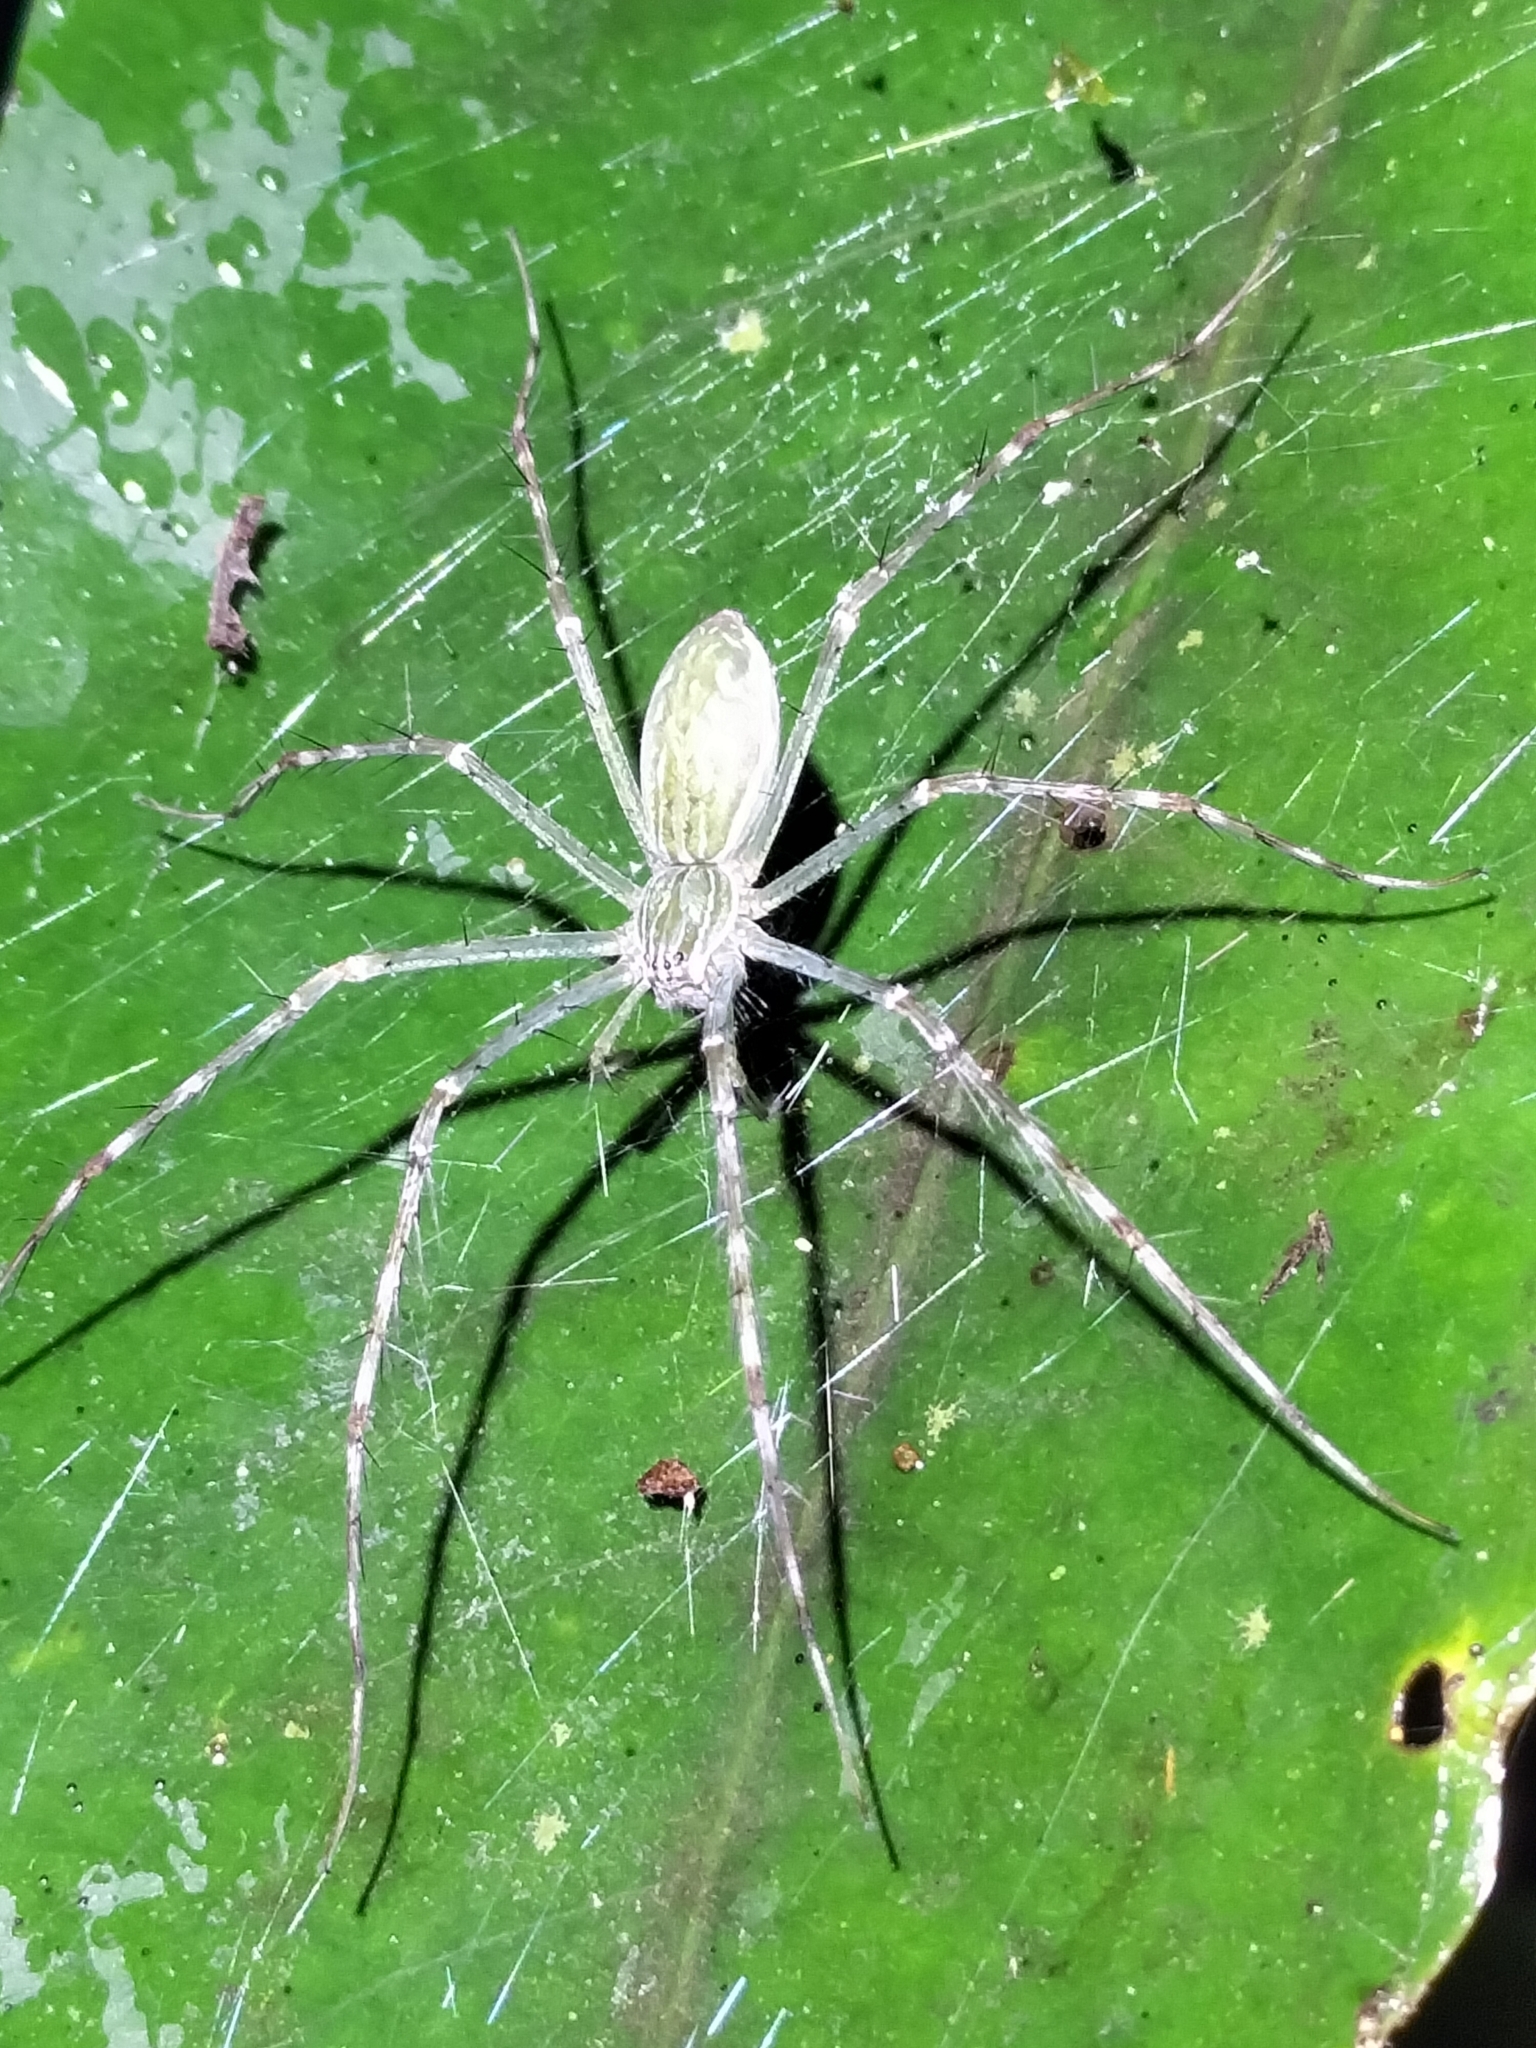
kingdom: Animalia
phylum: Arthropoda
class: Arachnida
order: Araneae
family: Pisauridae
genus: Hygropoda
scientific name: Hygropoda lineata
